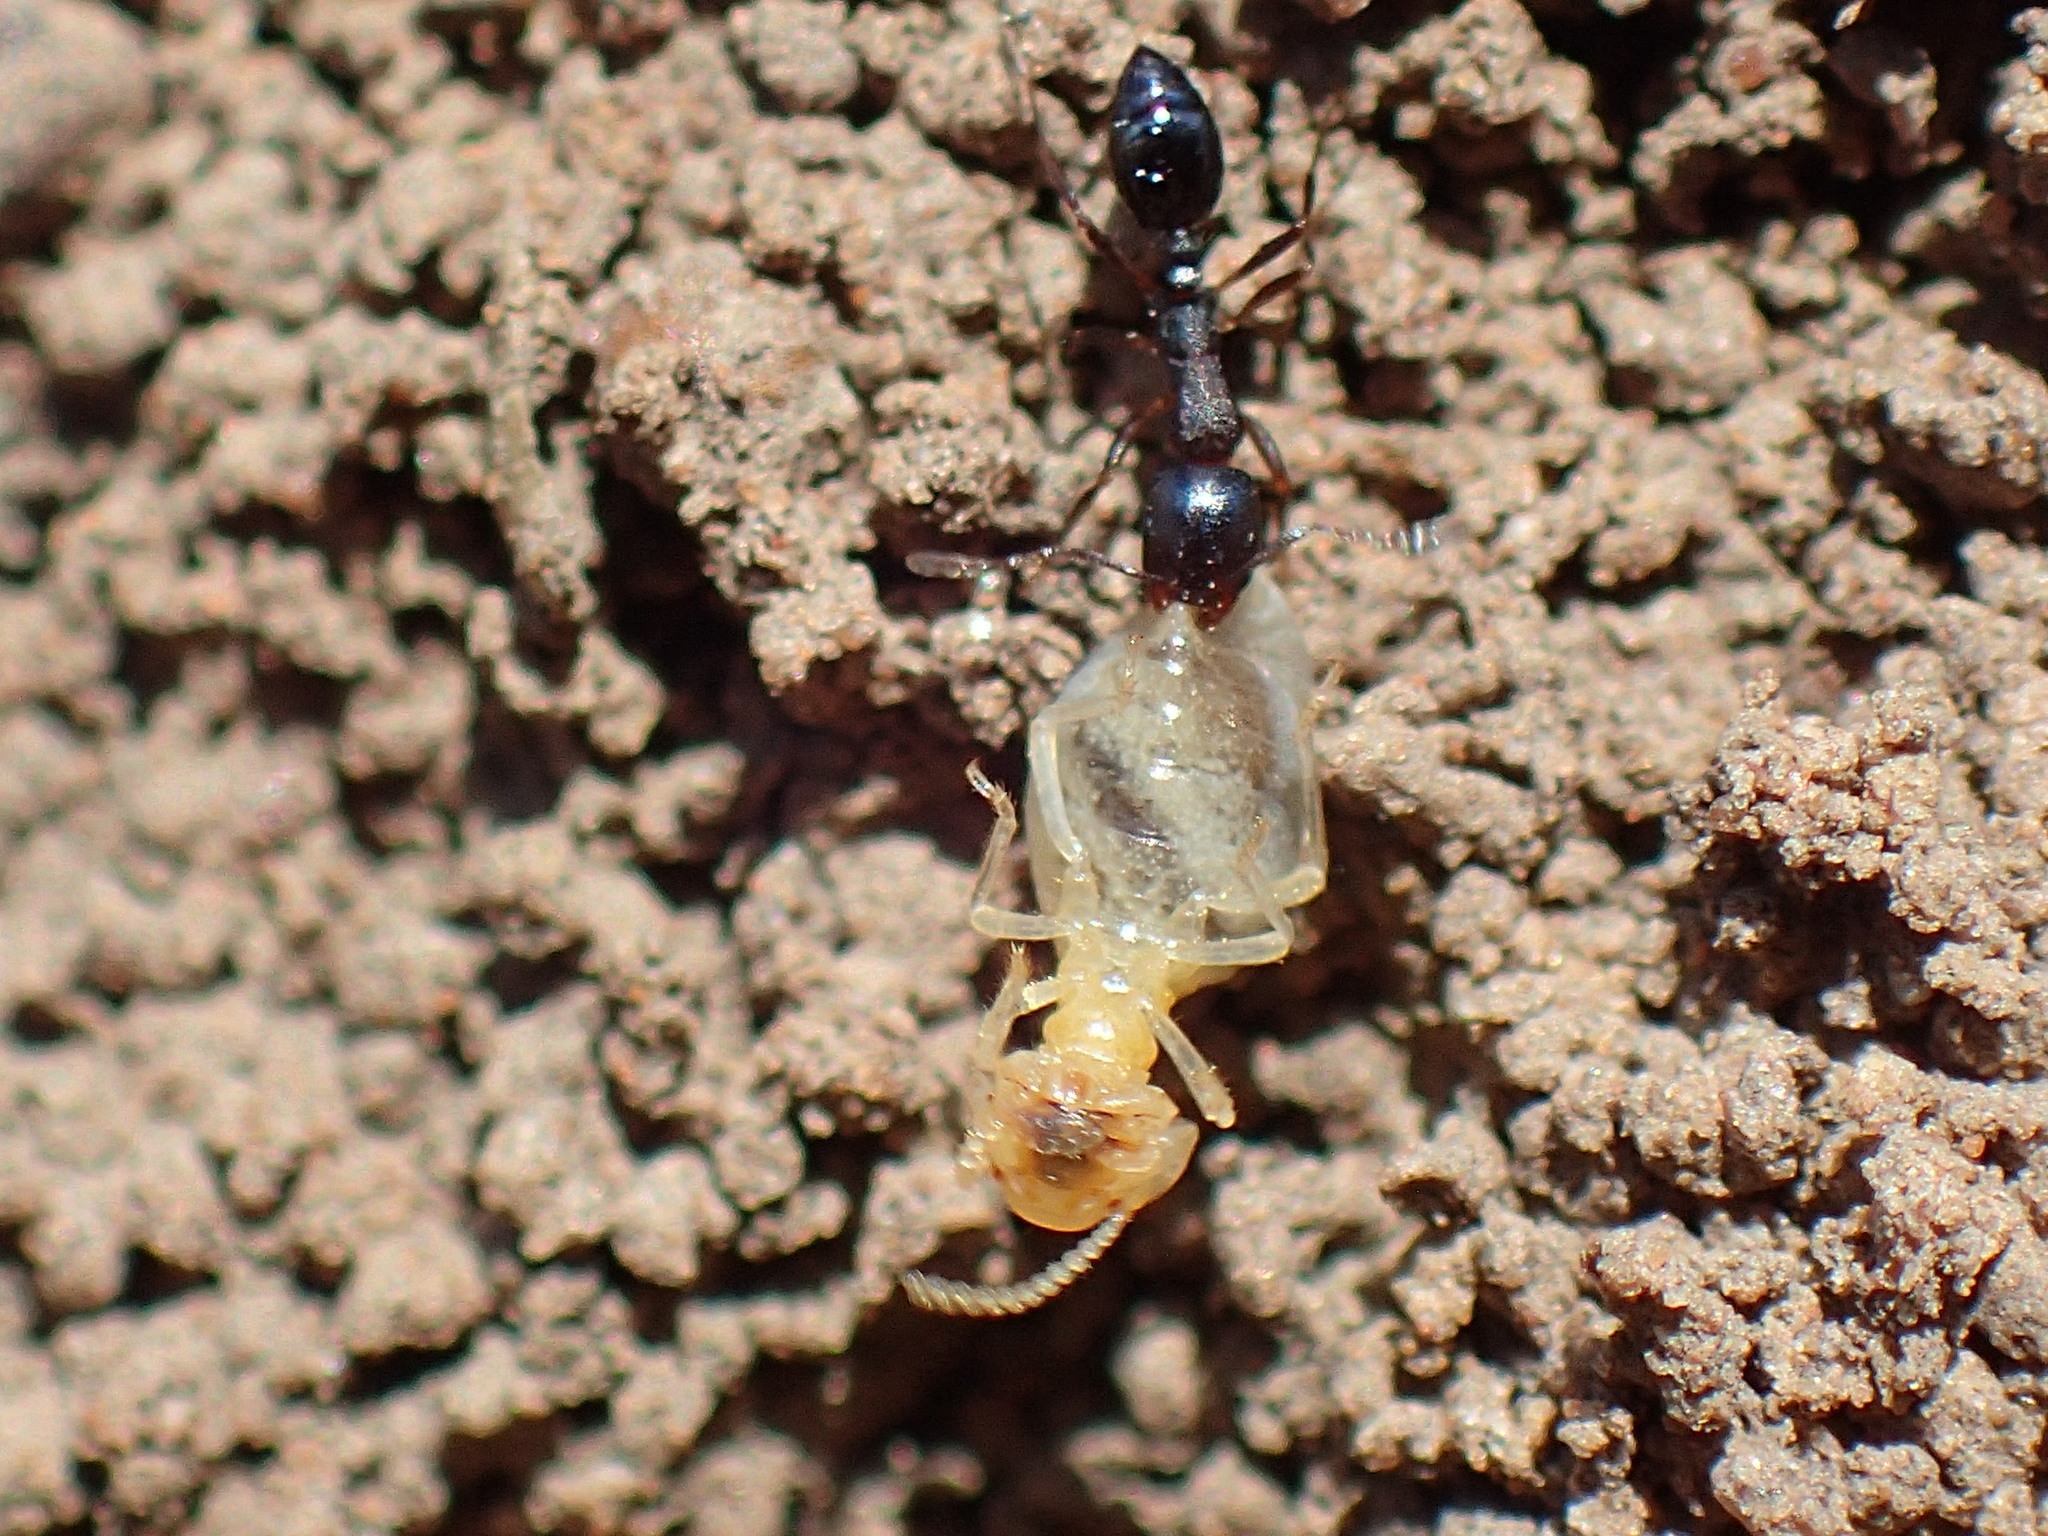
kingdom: Animalia
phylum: Arthropoda
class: Insecta
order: Hymenoptera
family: Formicidae
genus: Cardiocondyla
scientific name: Cardiocondyla emeryi
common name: Ant
